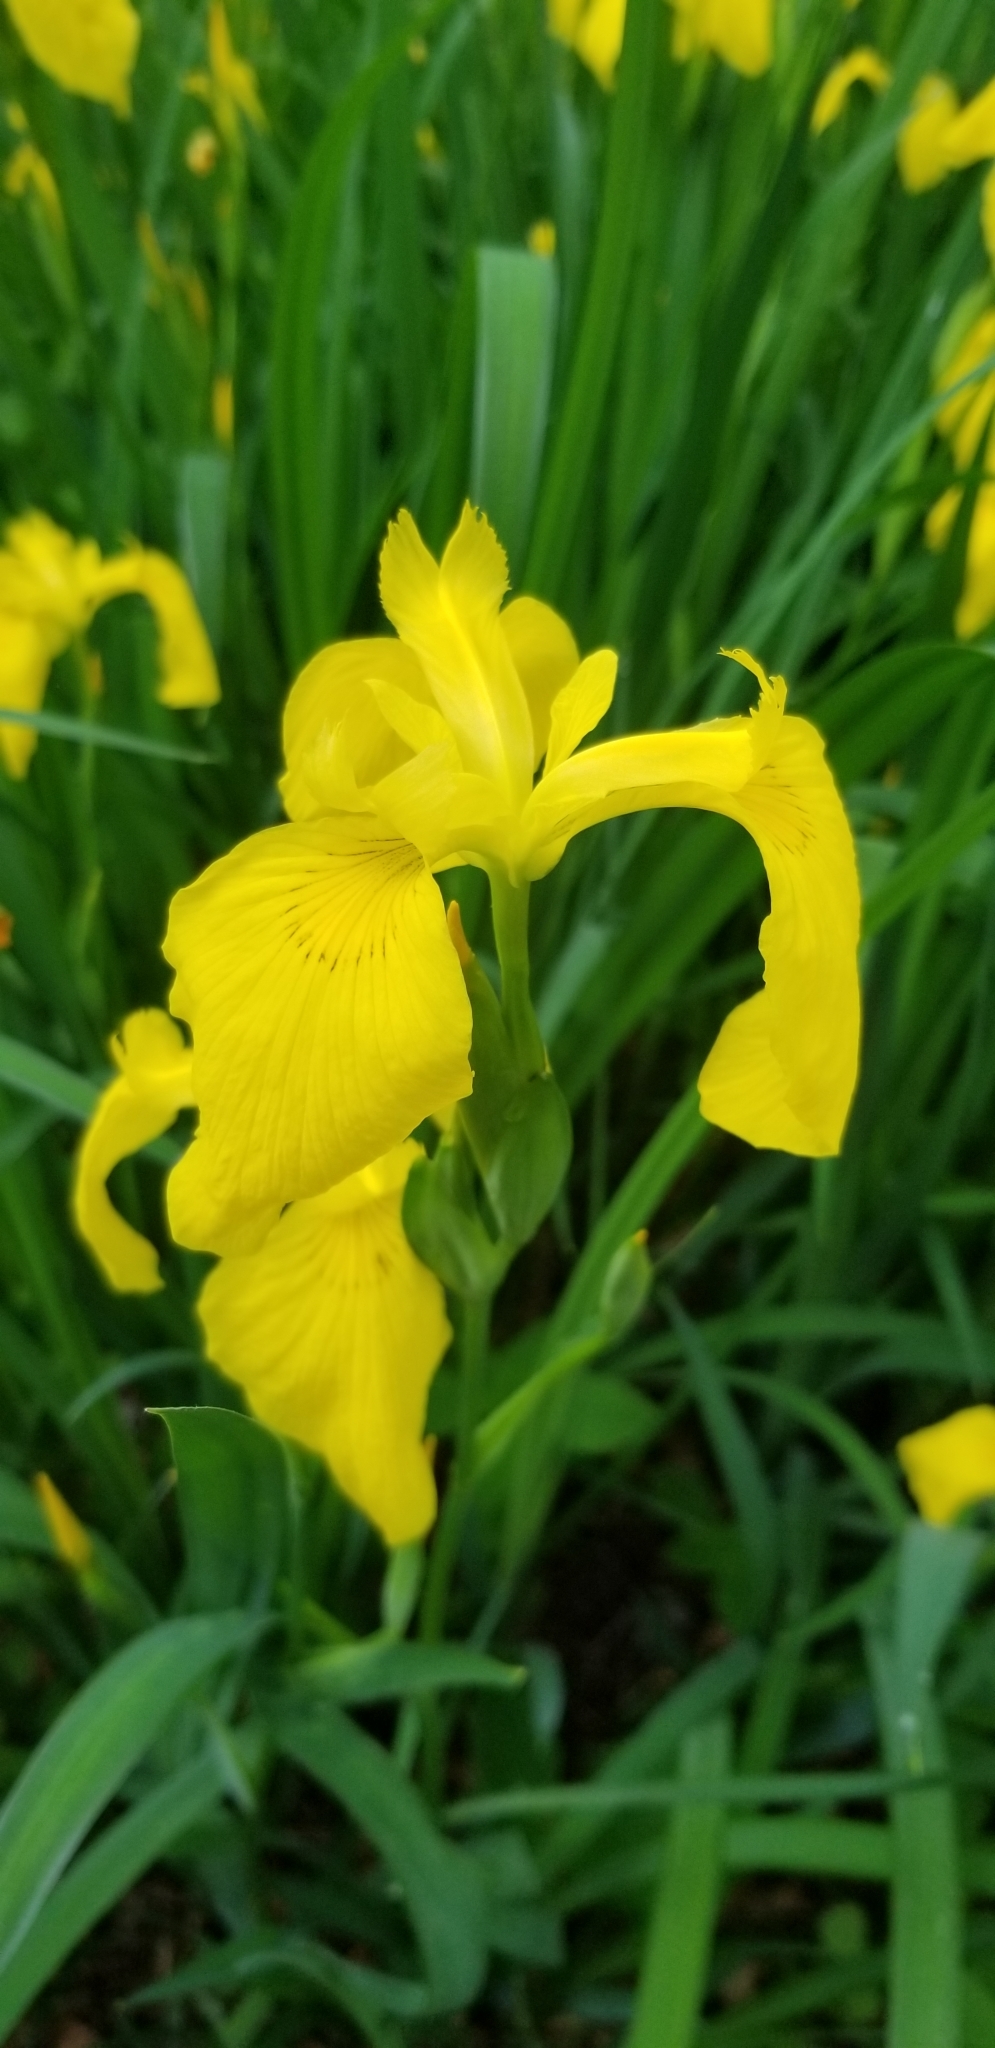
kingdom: Plantae
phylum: Tracheophyta
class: Liliopsida
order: Asparagales
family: Iridaceae
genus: Iris
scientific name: Iris pseudacorus
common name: Yellow flag
